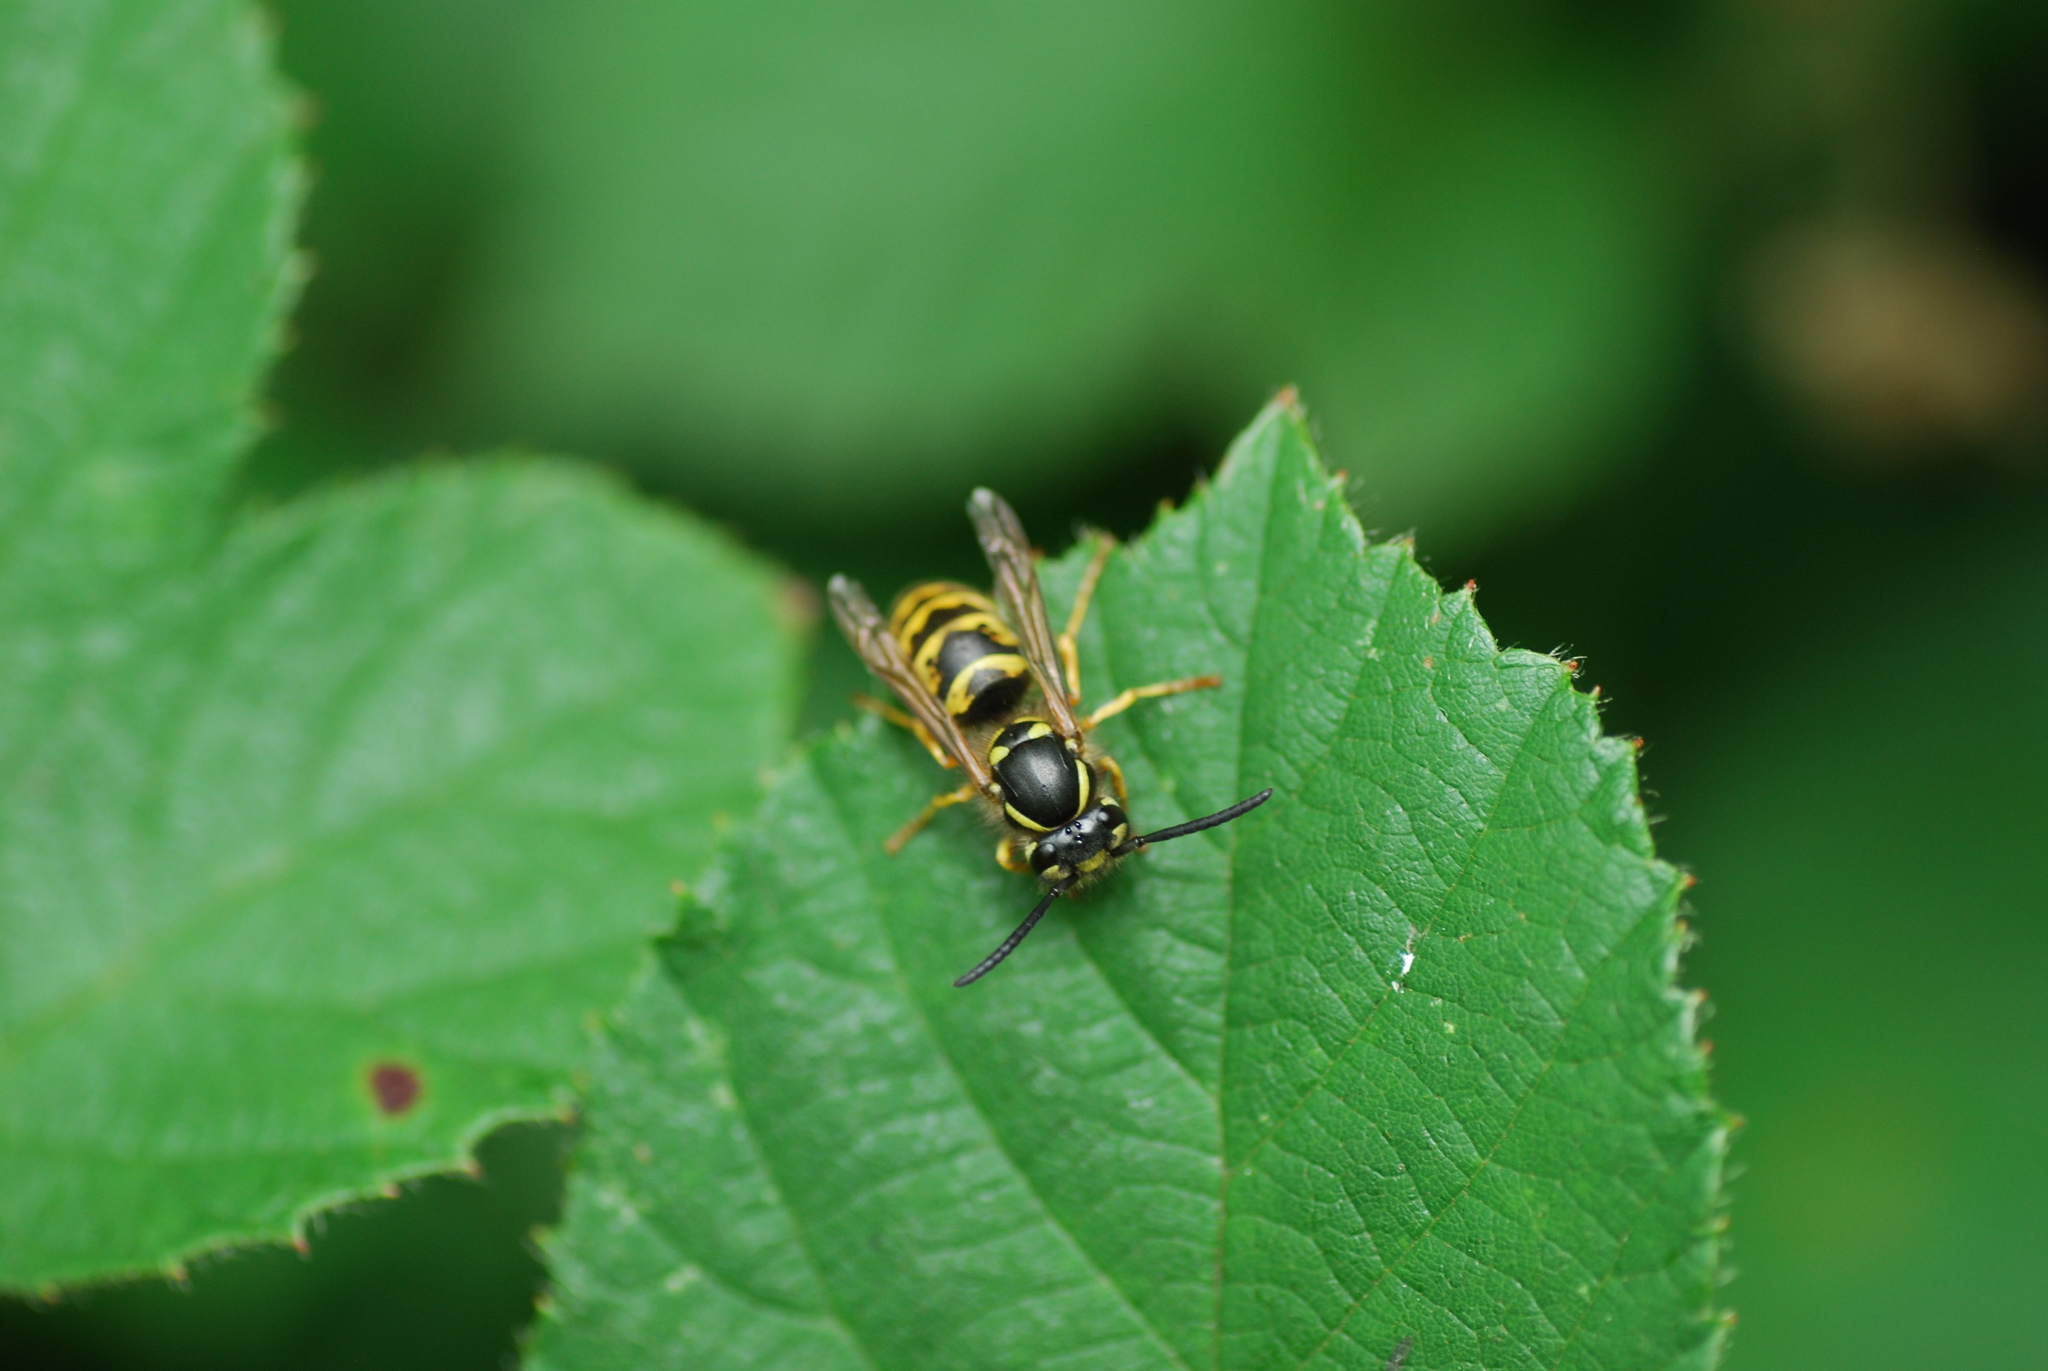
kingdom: Animalia
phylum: Arthropoda
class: Insecta
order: Hymenoptera
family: Vespidae
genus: Vespula
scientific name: Vespula vulgaris
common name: Common wasp
